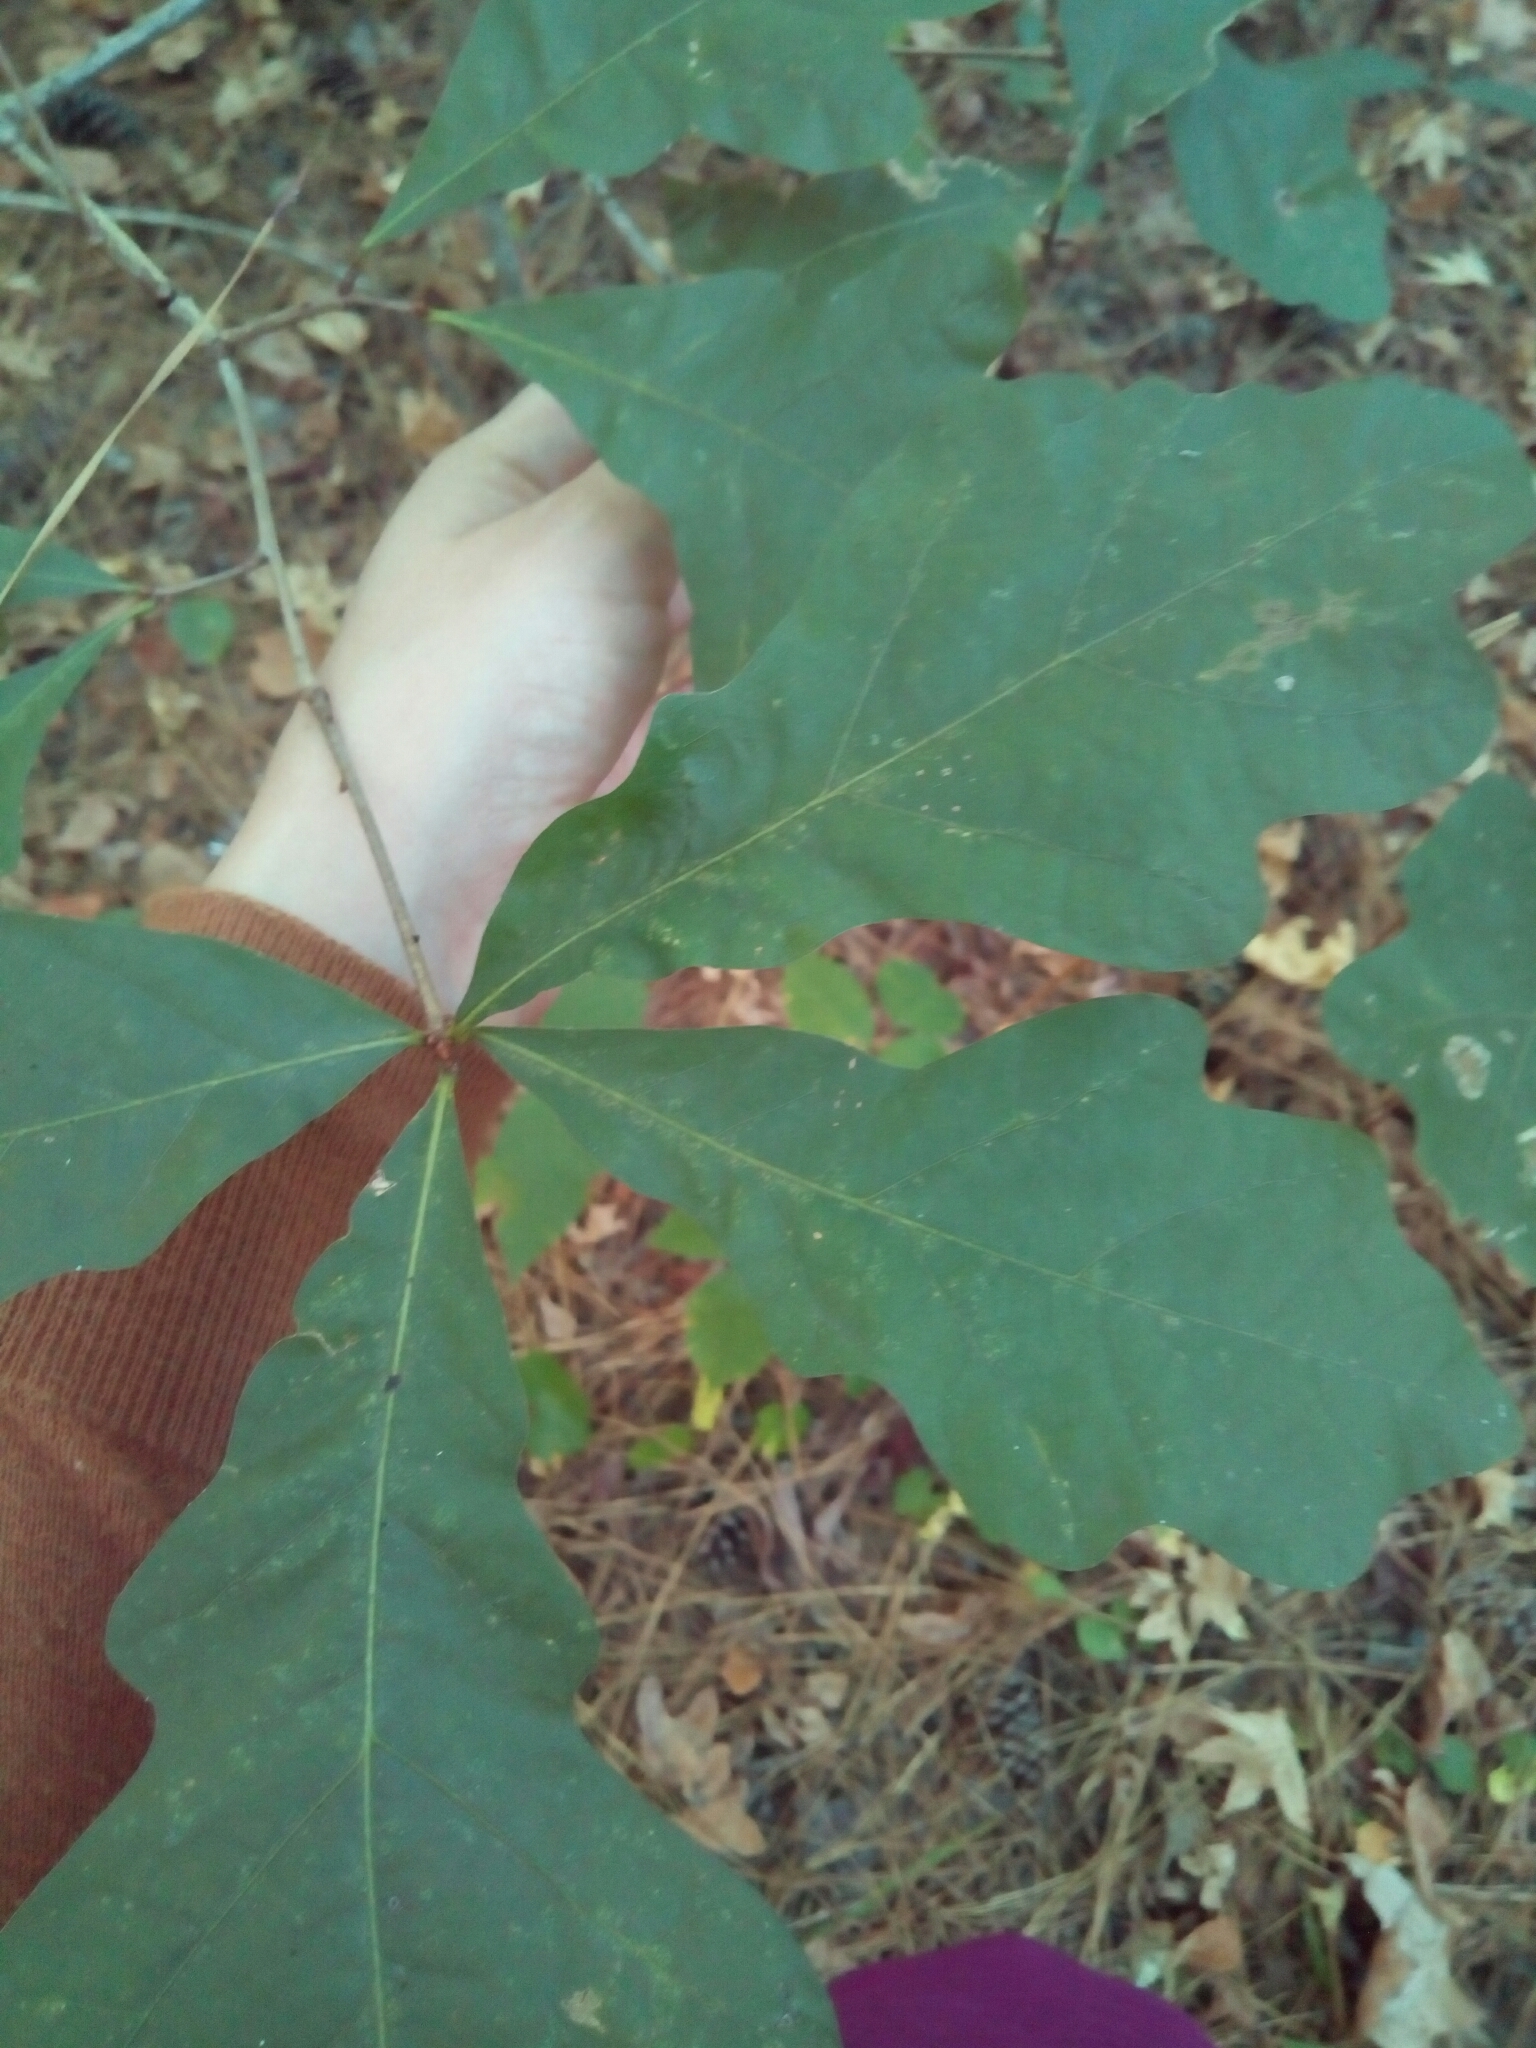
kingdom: Plantae
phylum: Tracheophyta
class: Magnoliopsida
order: Fagales
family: Fagaceae
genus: Quercus
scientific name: Quercus alba
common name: White oak
